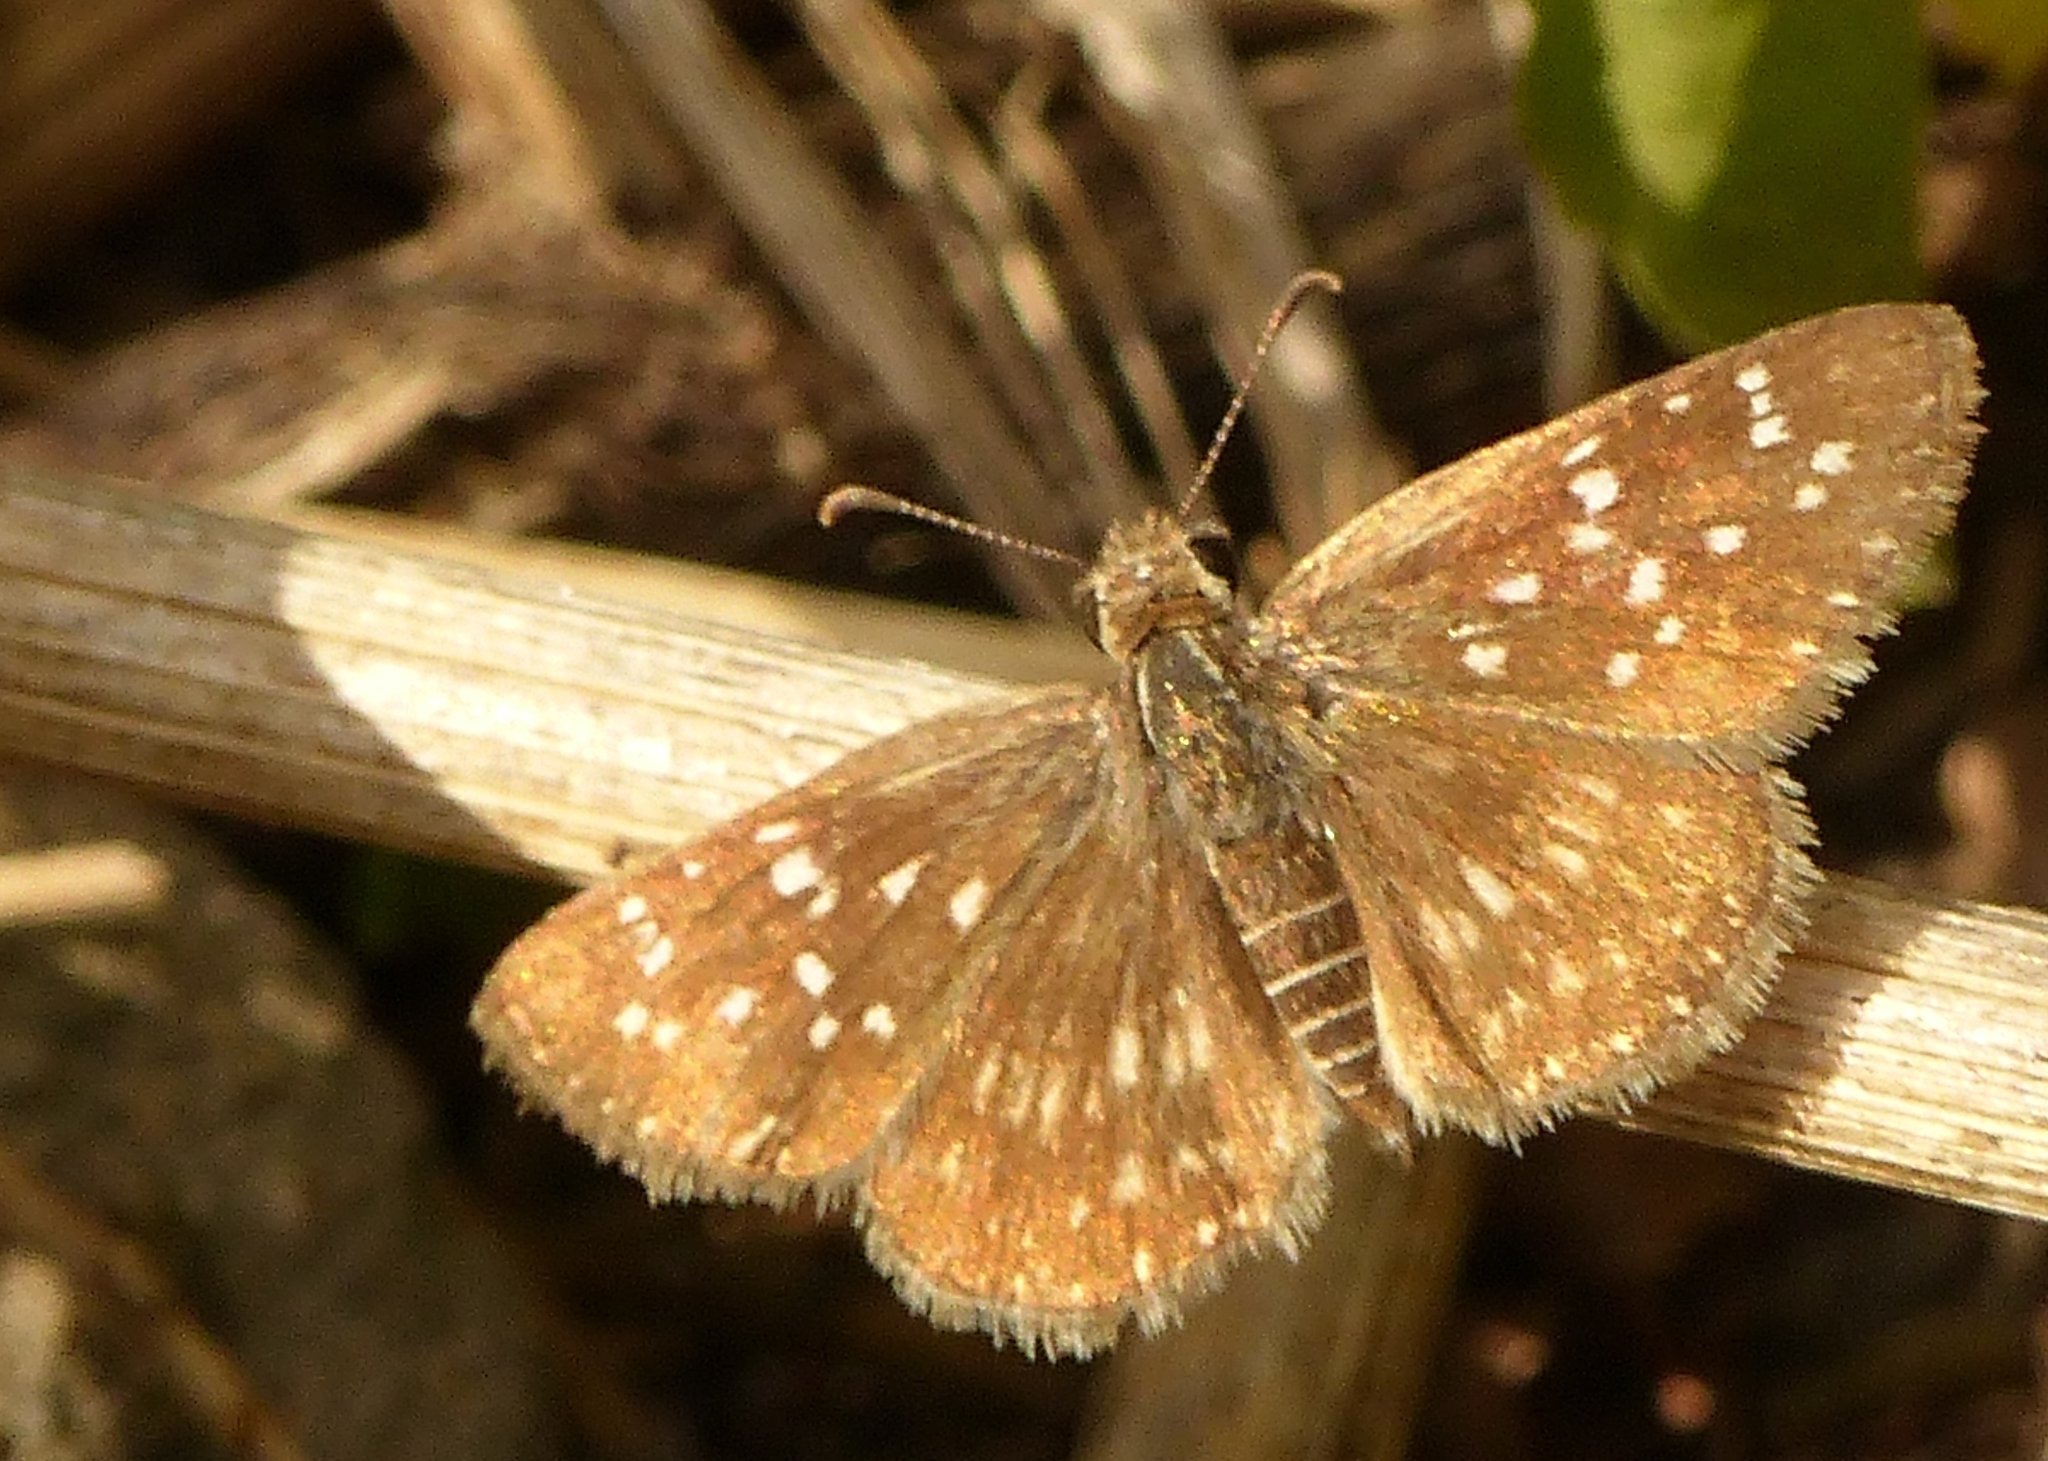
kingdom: Animalia
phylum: Arthropoda
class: Insecta
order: Lepidoptera
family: Hesperiidae
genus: Chirgus
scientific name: Chirgus
